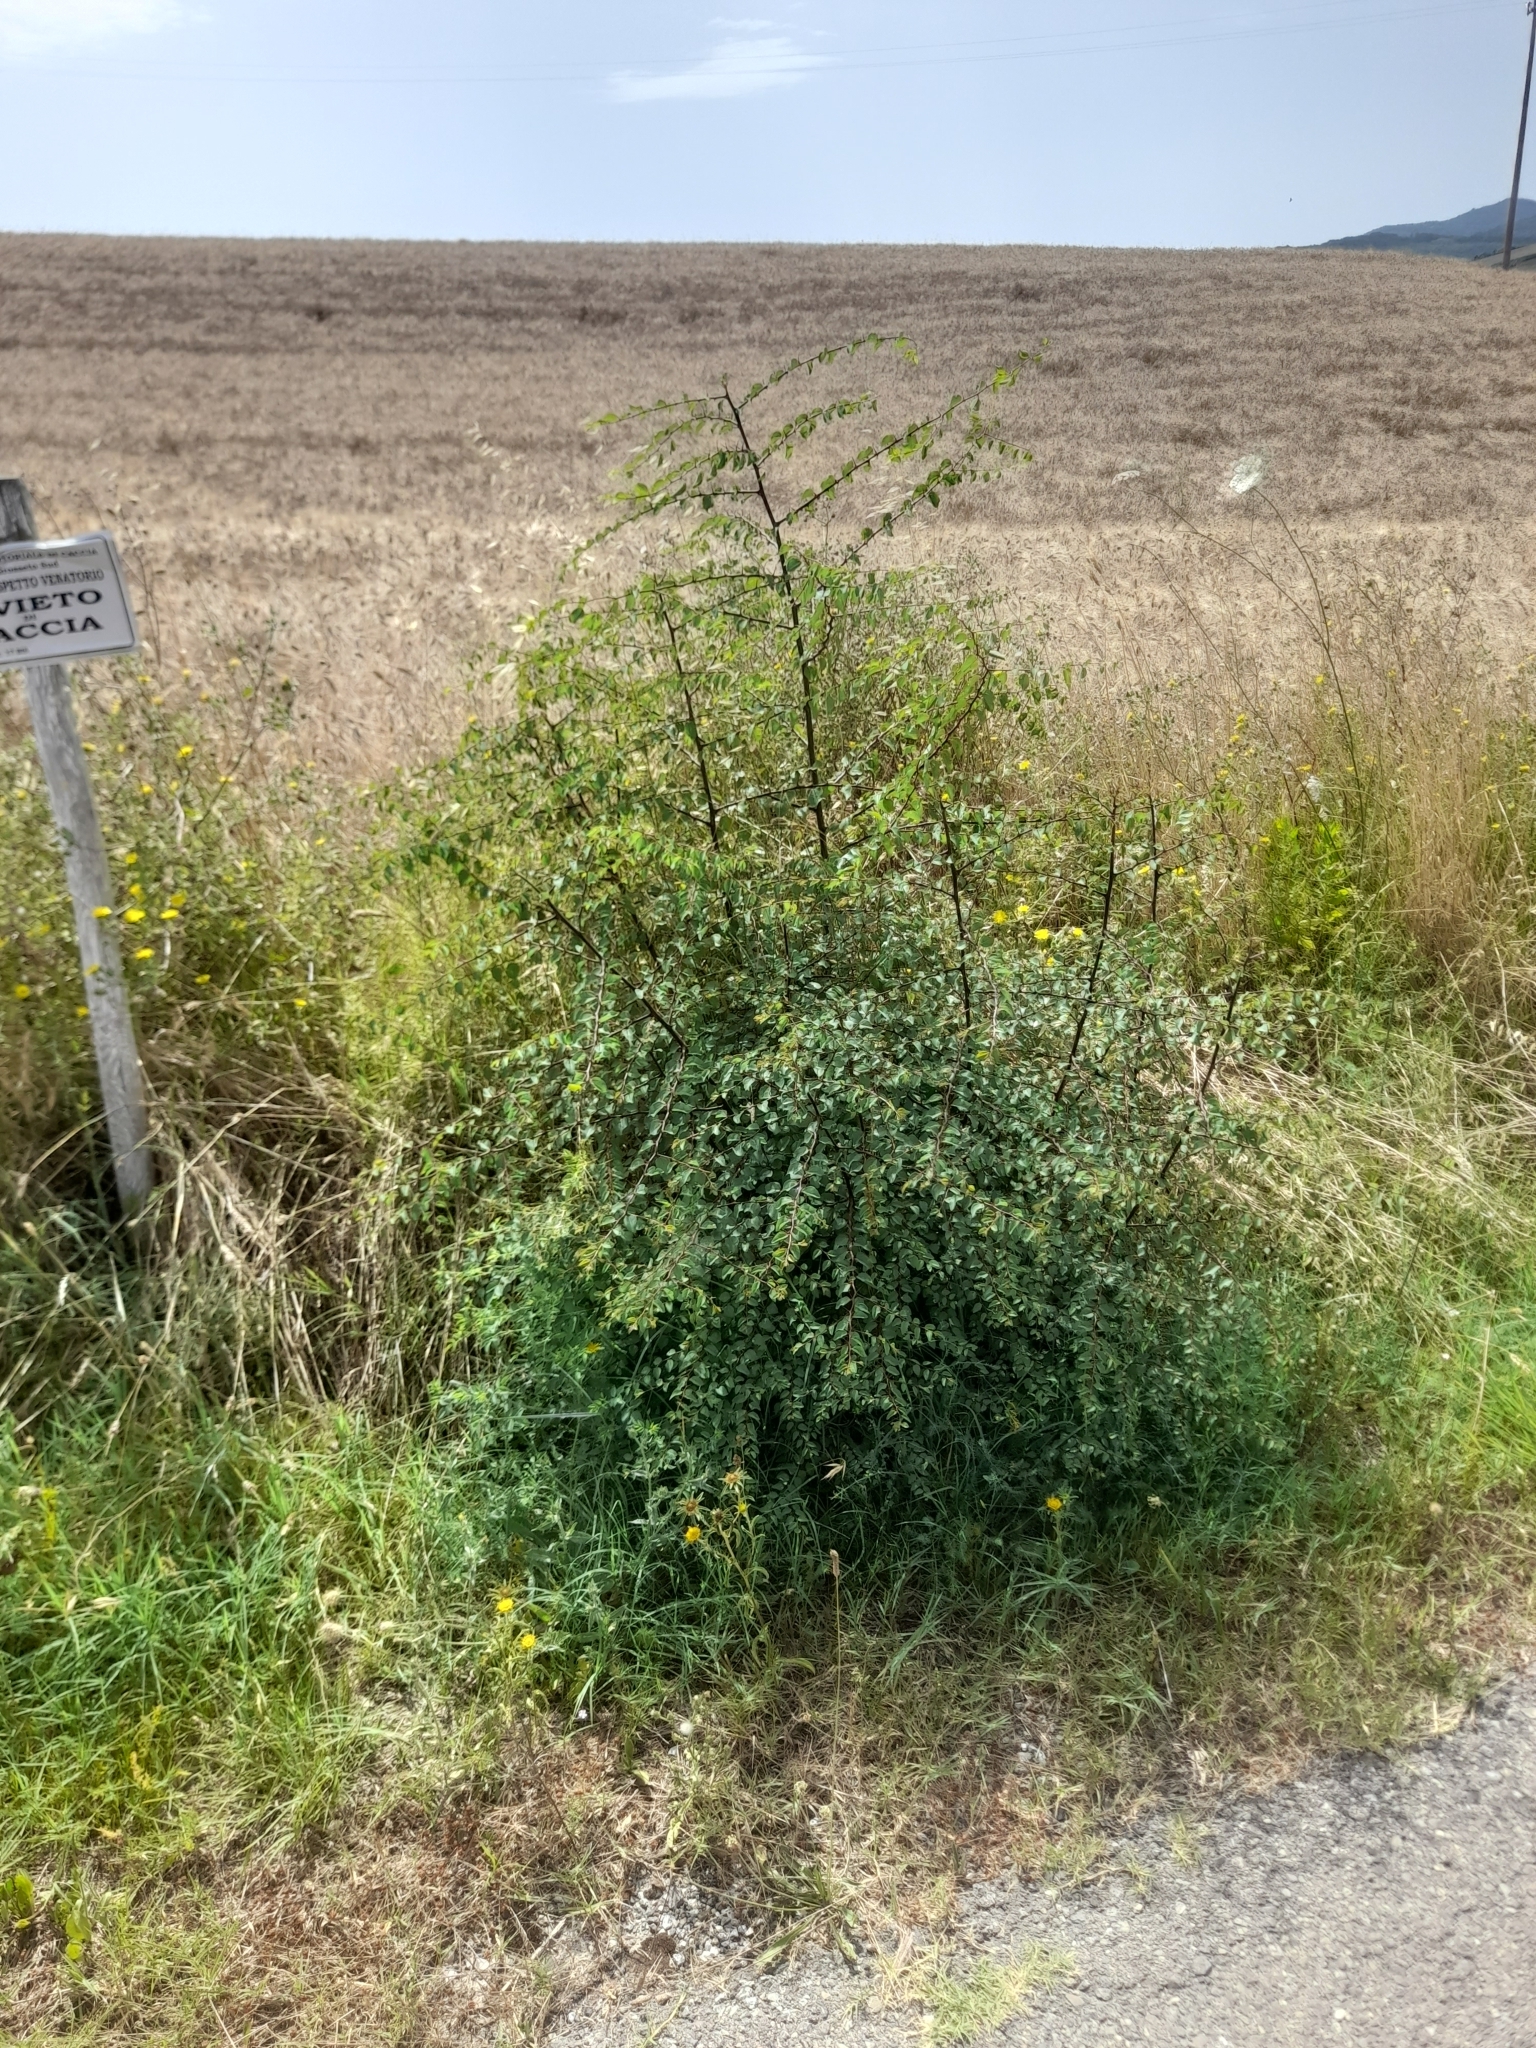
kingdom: Plantae
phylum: Tracheophyta
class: Magnoliopsida
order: Rosales
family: Rhamnaceae
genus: Paliurus
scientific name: Paliurus spina-christi
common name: Jeruselem thorn
